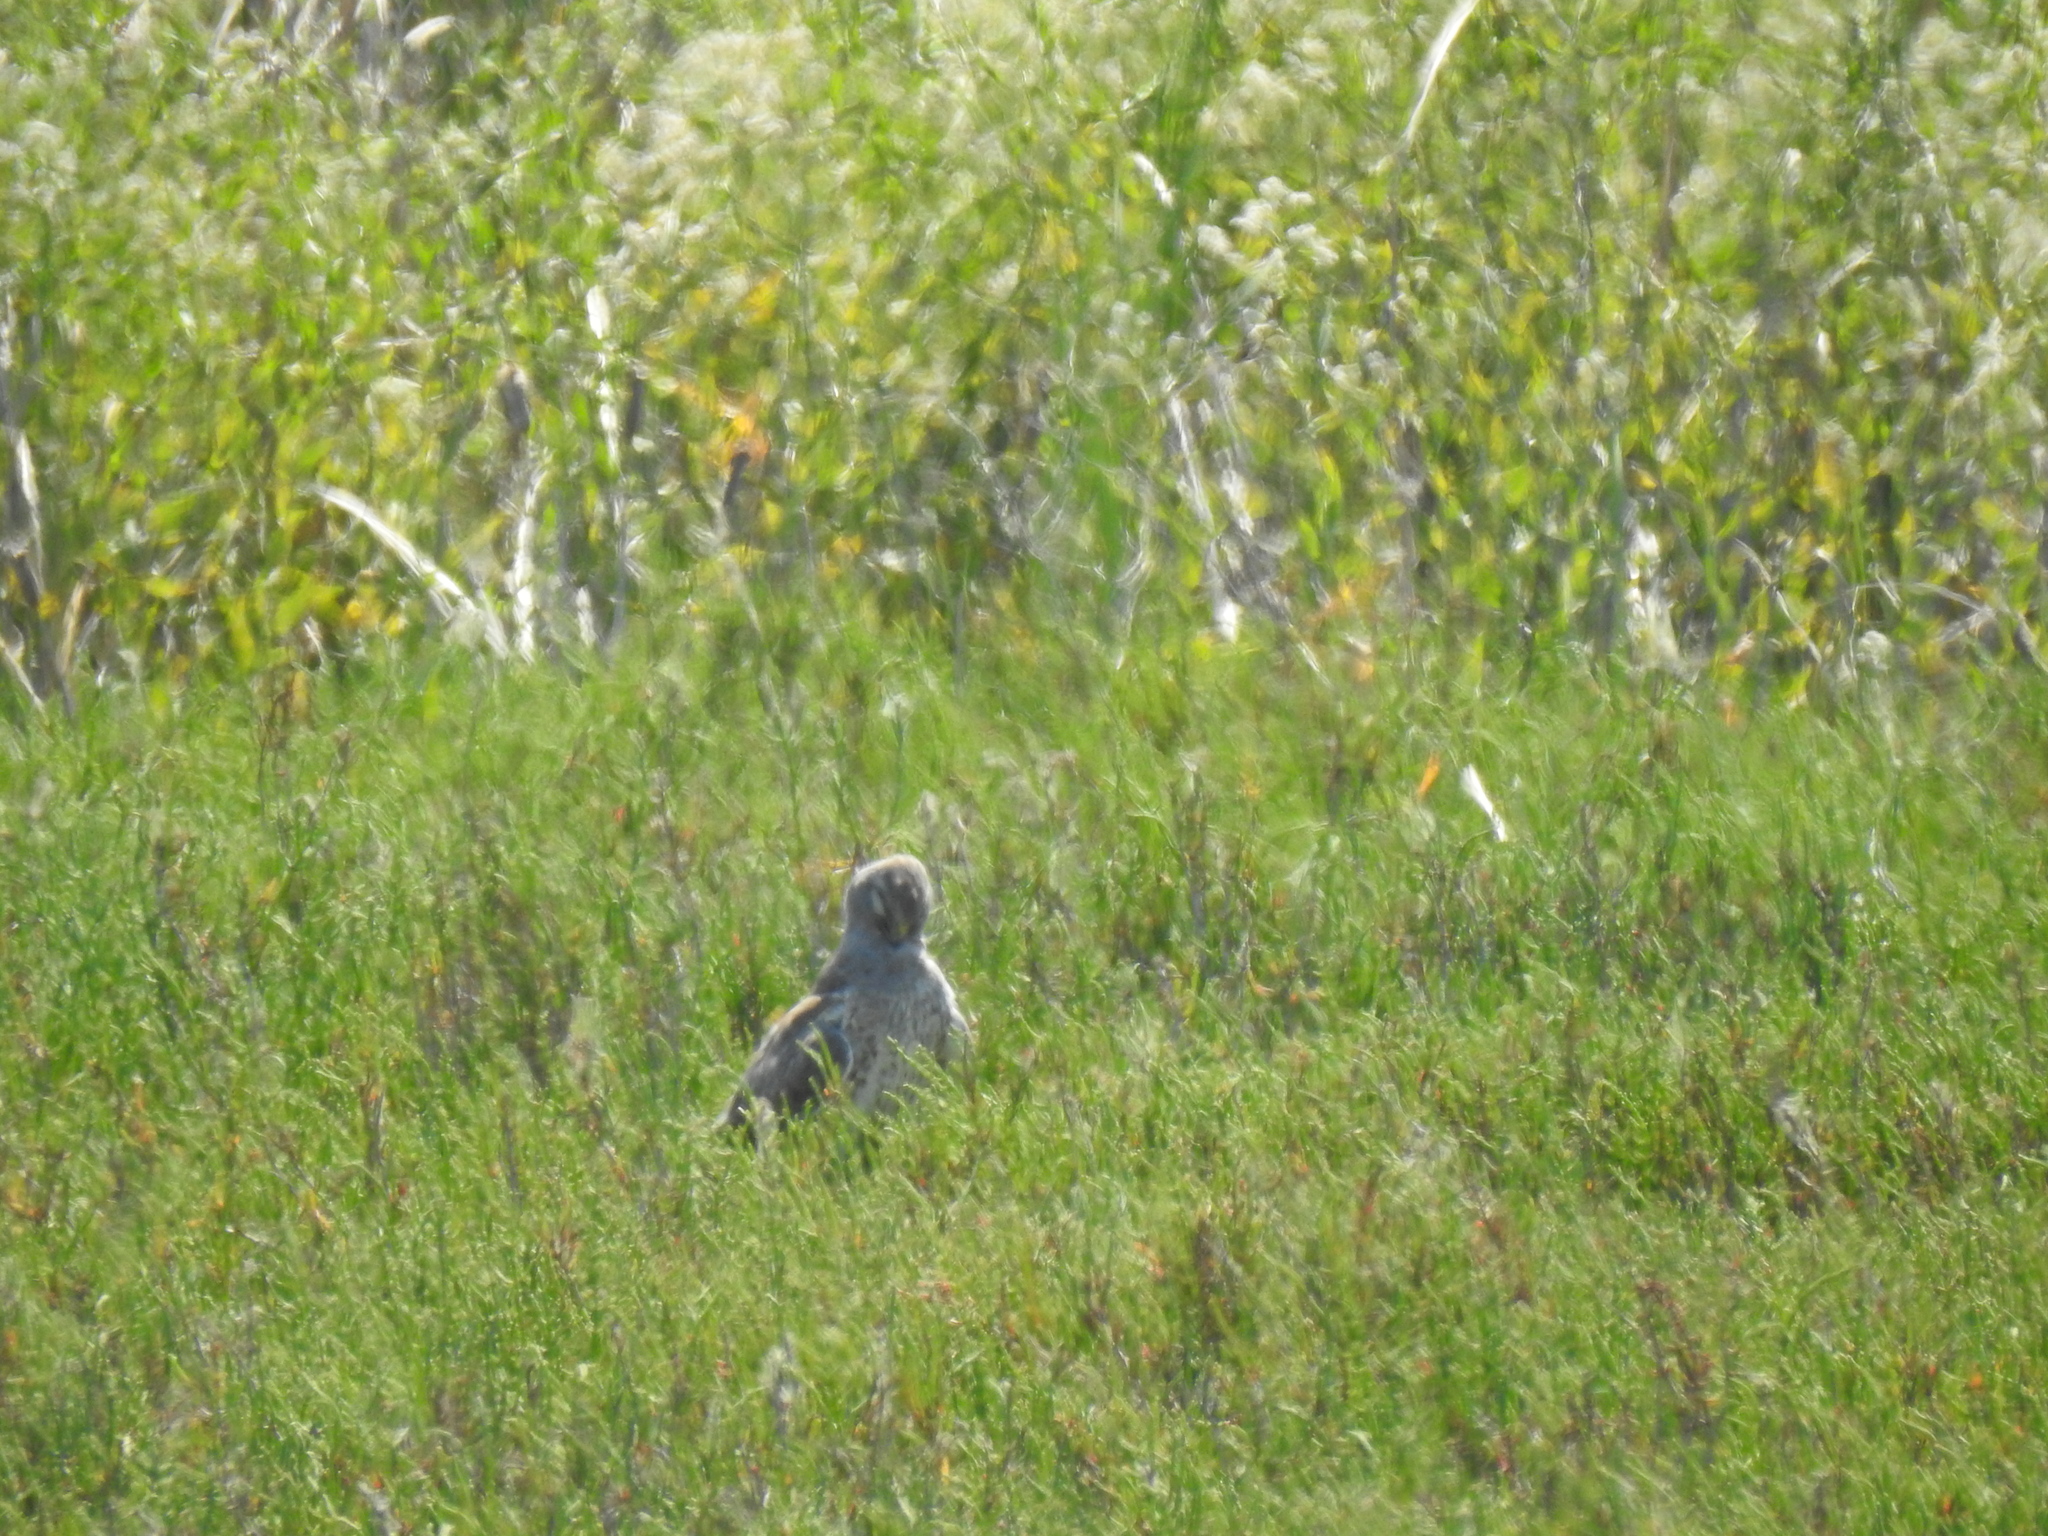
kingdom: Animalia
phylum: Chordata
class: Aves
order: Accipitriformes
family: Accipitridae
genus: Circus
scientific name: Circus cyaneus
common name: Hen harrier
